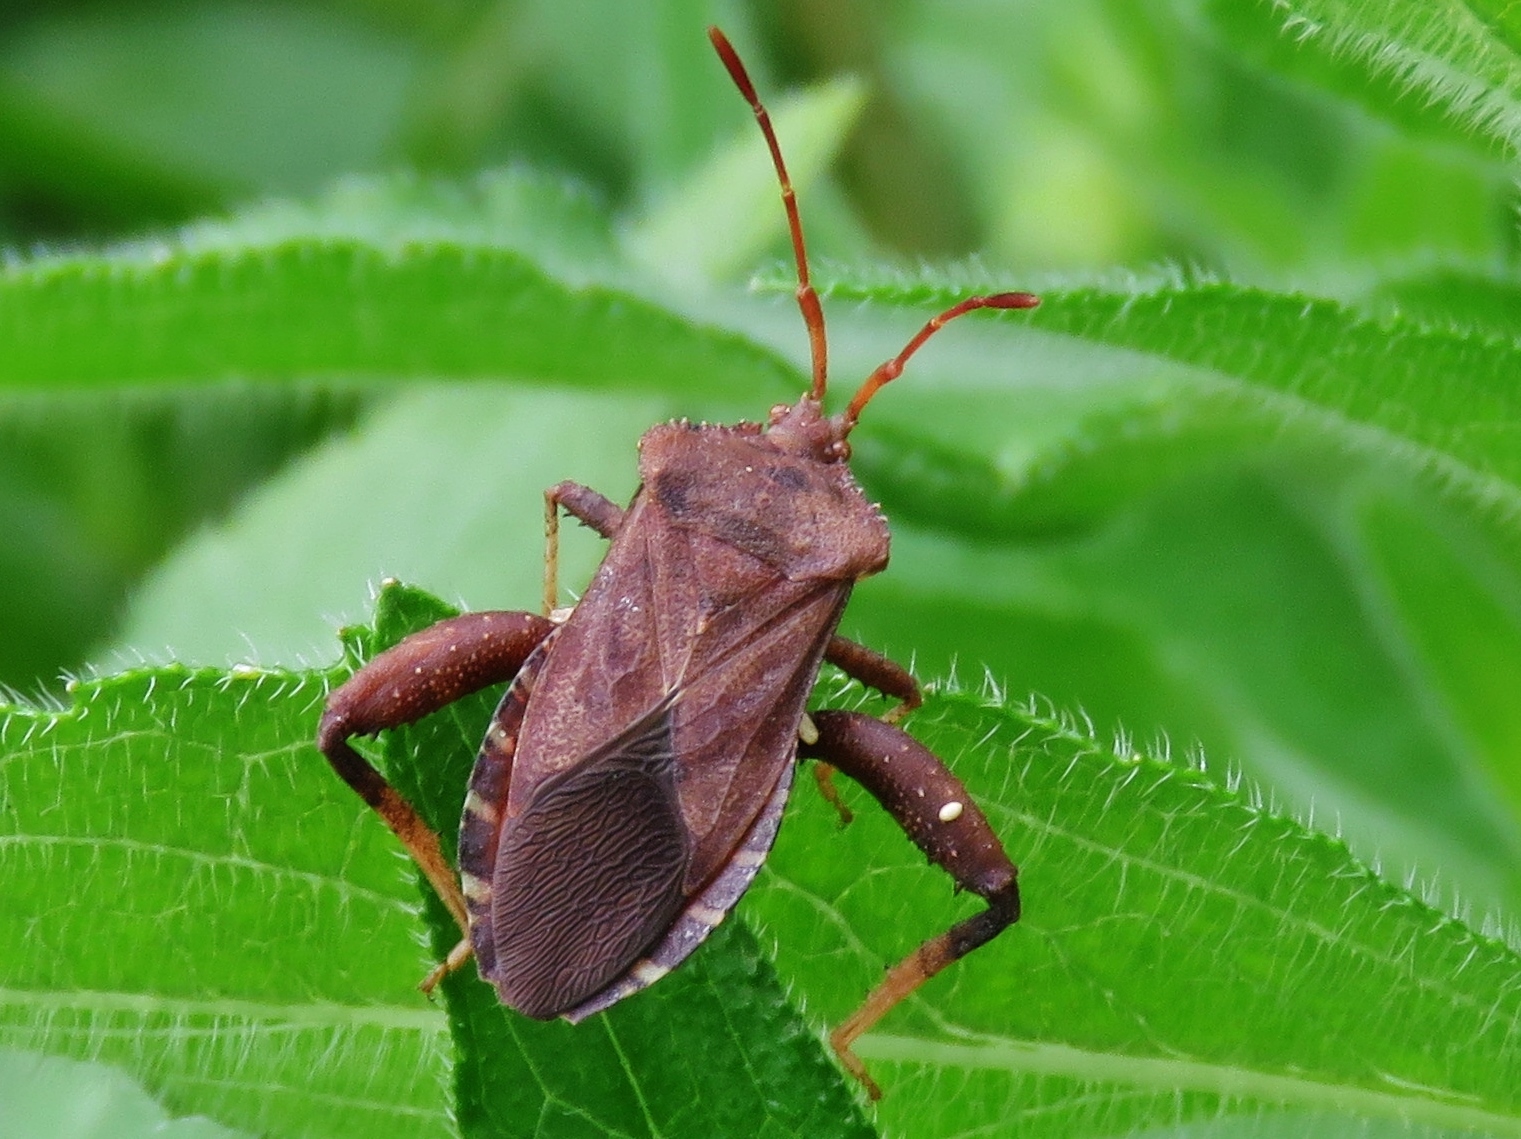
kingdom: Animalia
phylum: Arthropoda
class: Insecta
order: Hemiptera
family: Coreidae
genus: Euthochtha
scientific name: Euthochtha galeator
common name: Helmeted squash bug
